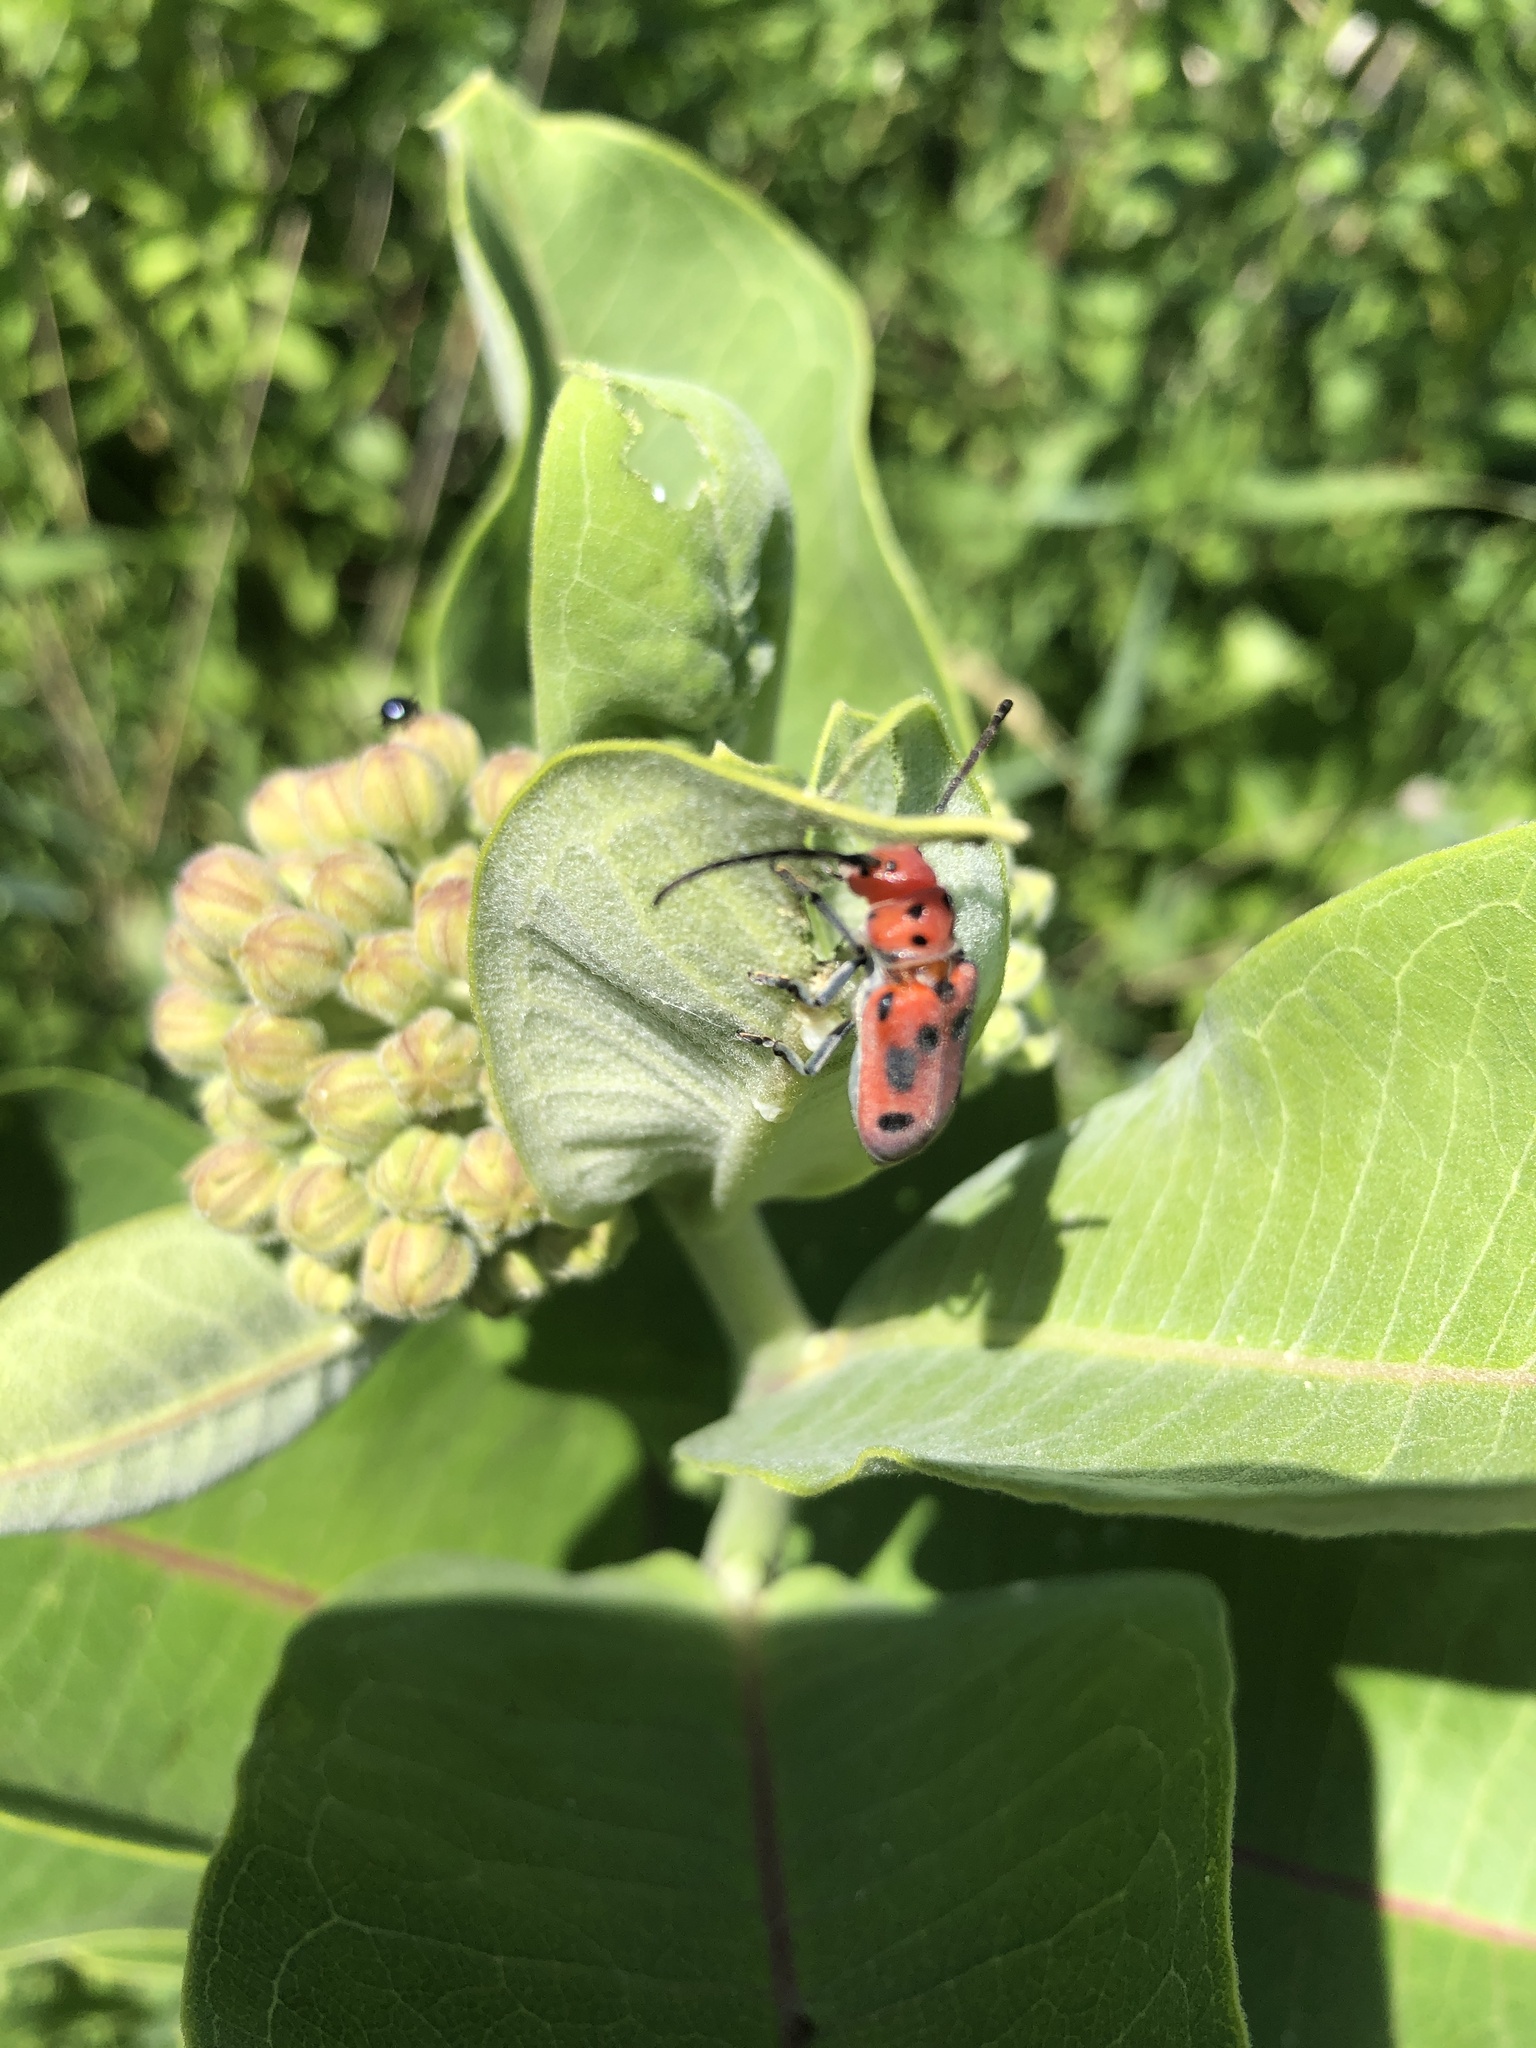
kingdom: Animalia
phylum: Arthropoda
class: Insecta
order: Coleoptera
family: Cerambycidae
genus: Tetraopes
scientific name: Tetraopes tetrophthalmus
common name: Red milkweed beetle
